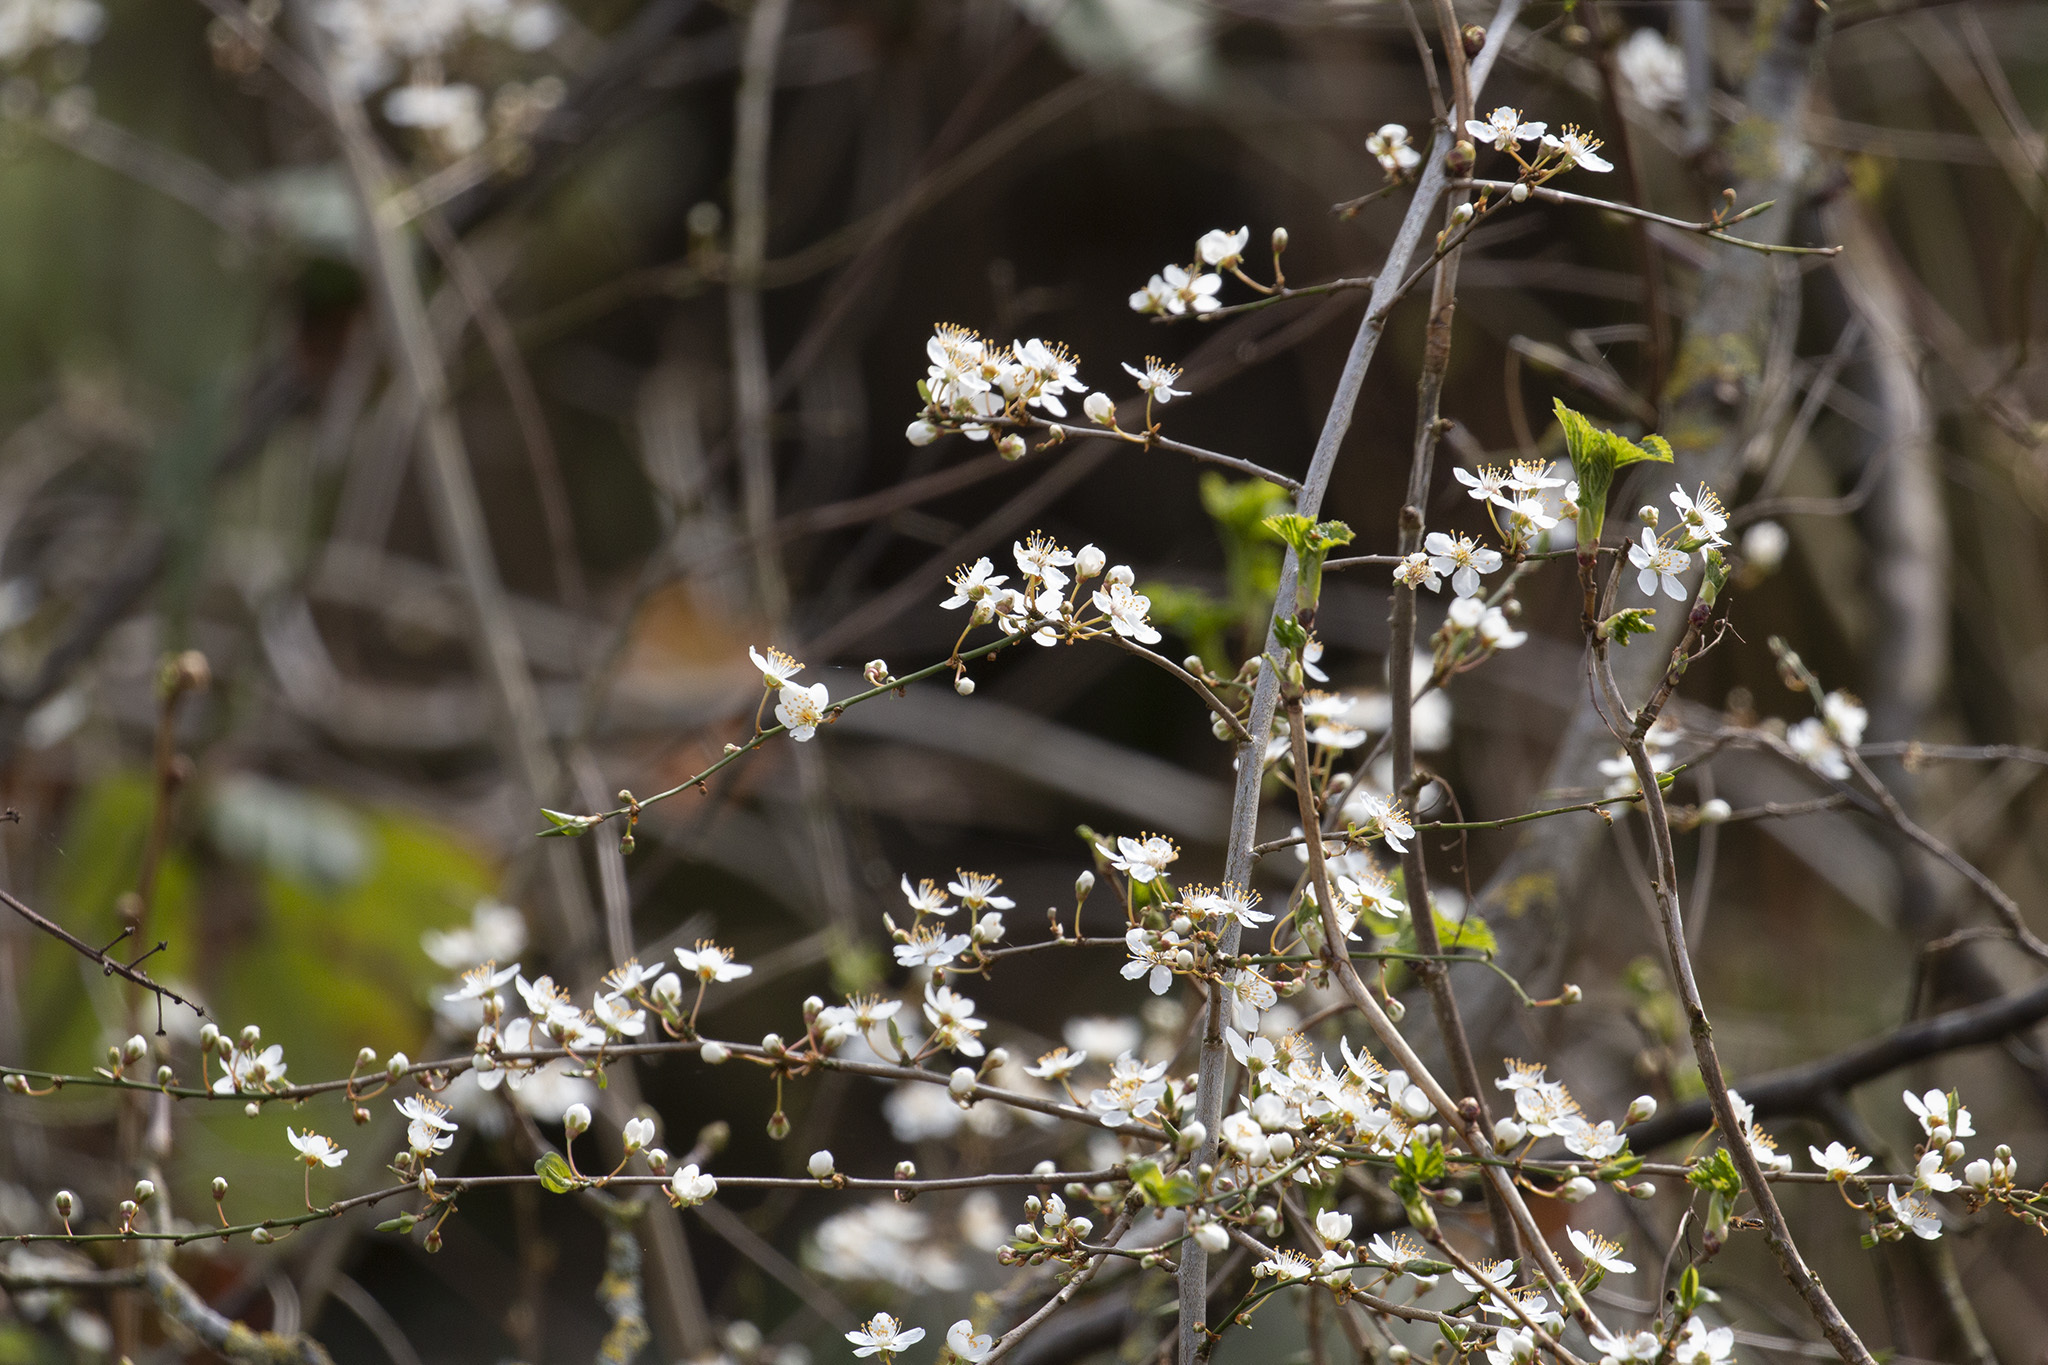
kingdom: Plantae
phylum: Tracheophyta
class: Magnoliopsida
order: Rosales
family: Rosaceae
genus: Prunus
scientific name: Prunus cerasifera
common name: Cherry plum
